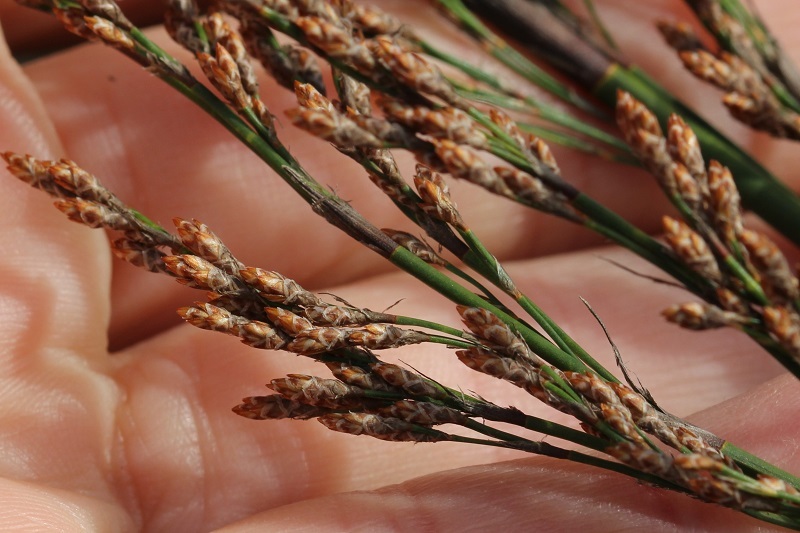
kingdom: Plantae
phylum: Tracheophyta
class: Liliopsida
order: Poales
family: Restionaceae
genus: Restio
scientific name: Restio paniculatus
